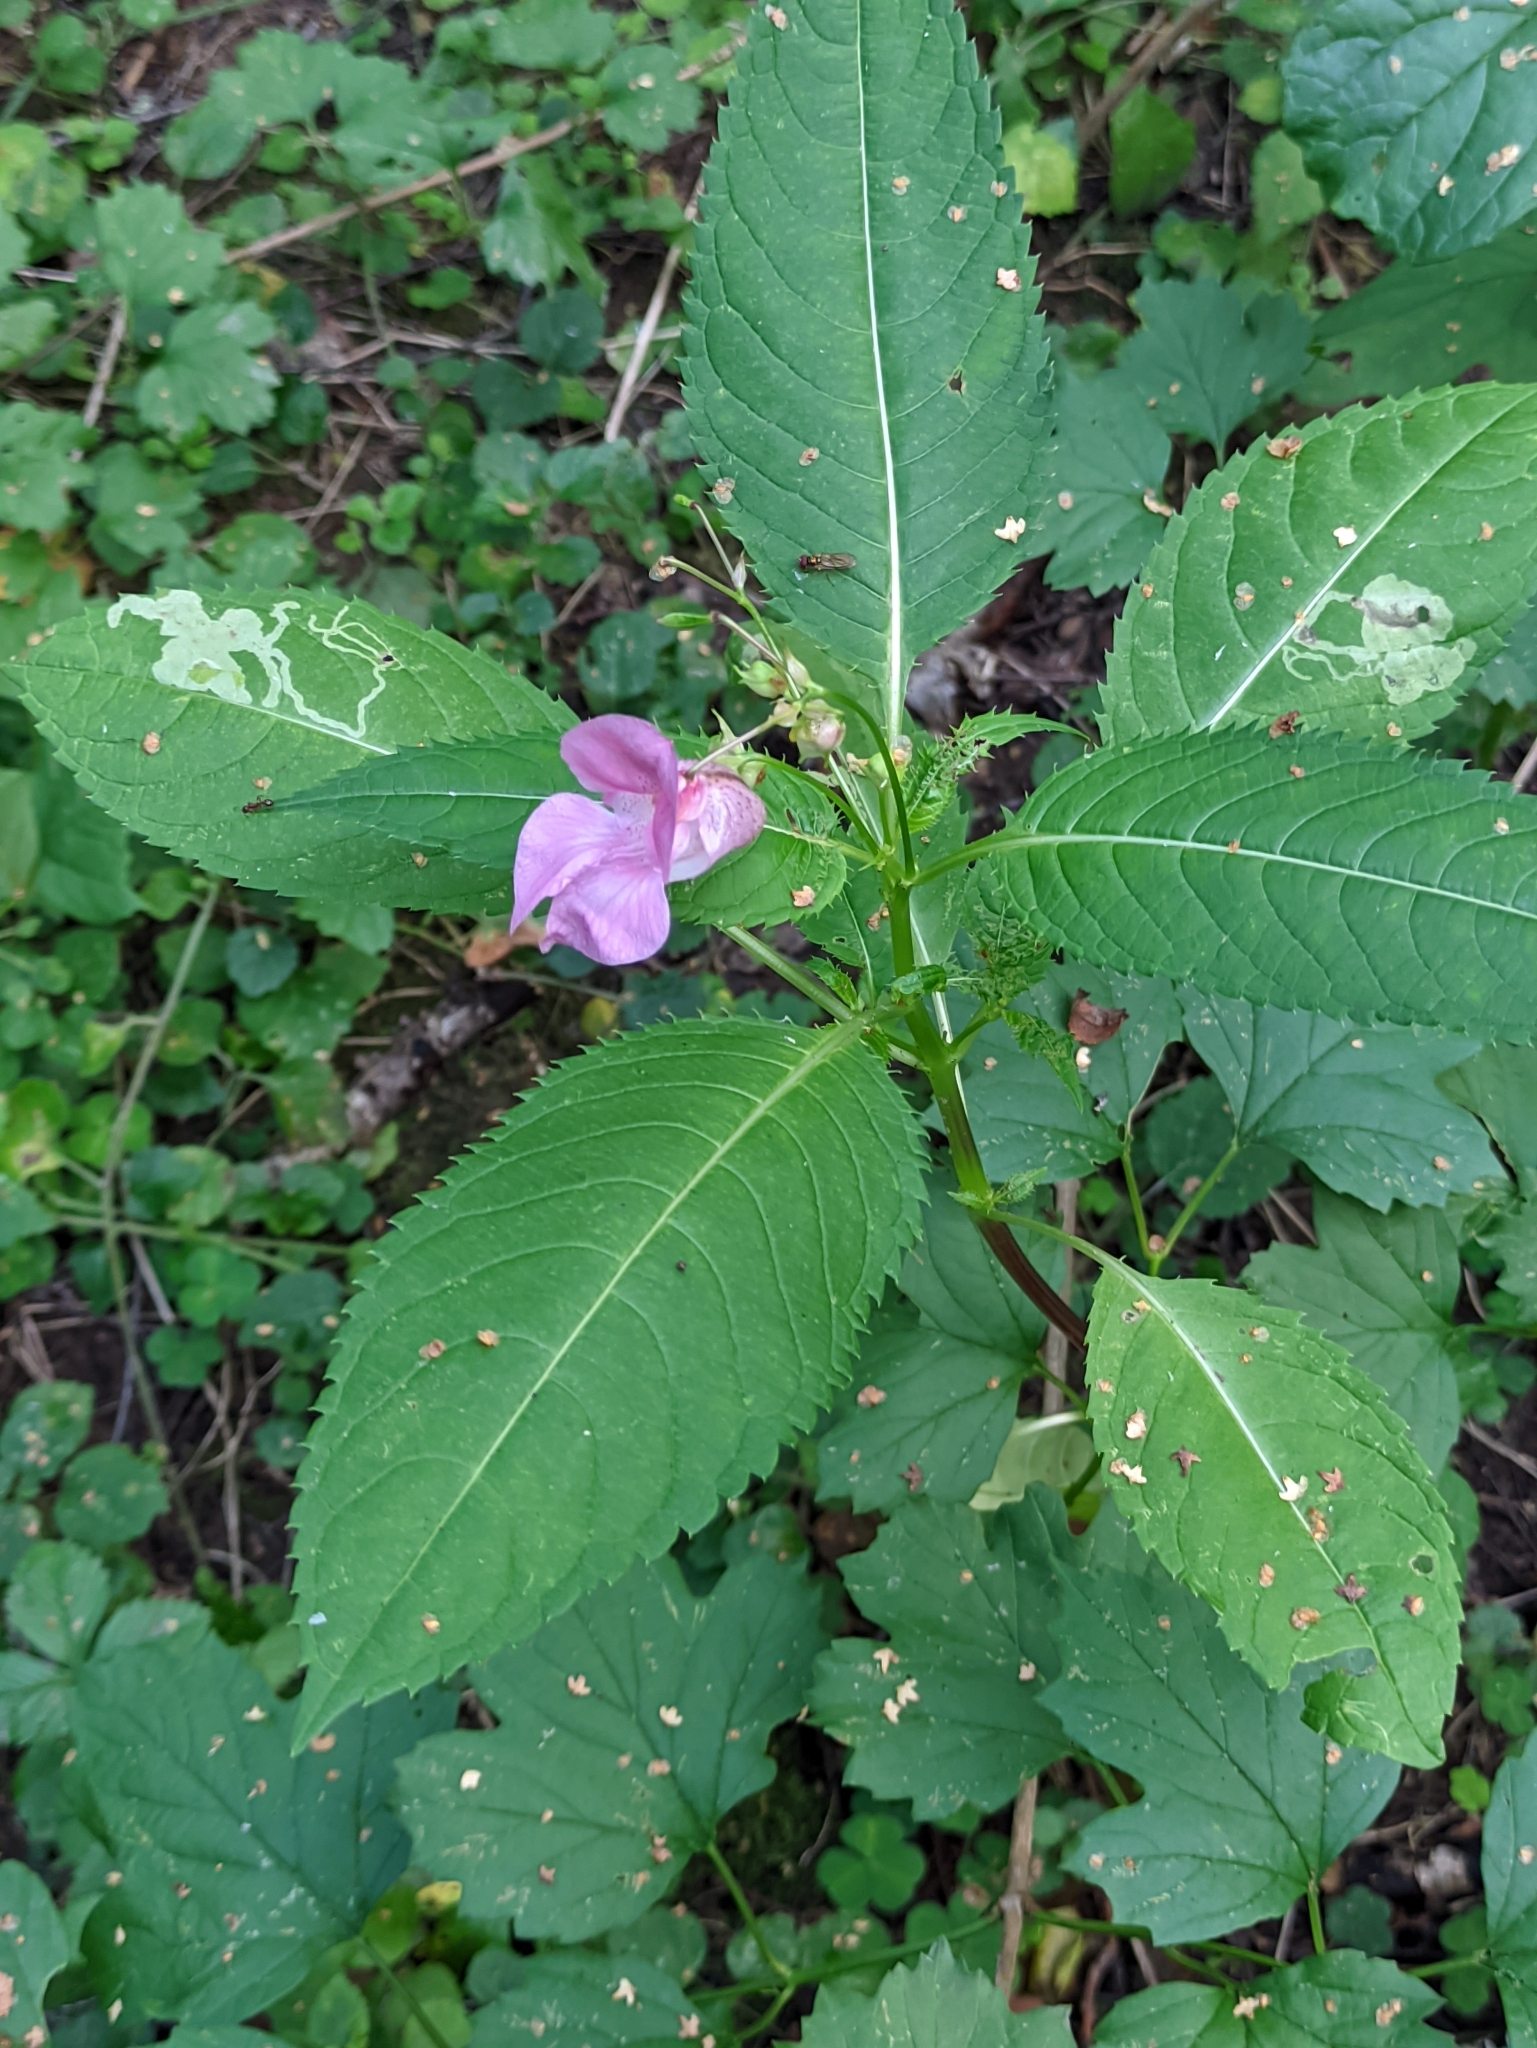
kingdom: Plantae
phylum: Tracheophyta
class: Magnoliopsida
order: Ericales
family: Balsaminaceae
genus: Impatiens
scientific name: Impatiens glandulifera
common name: Himalayan balsam
